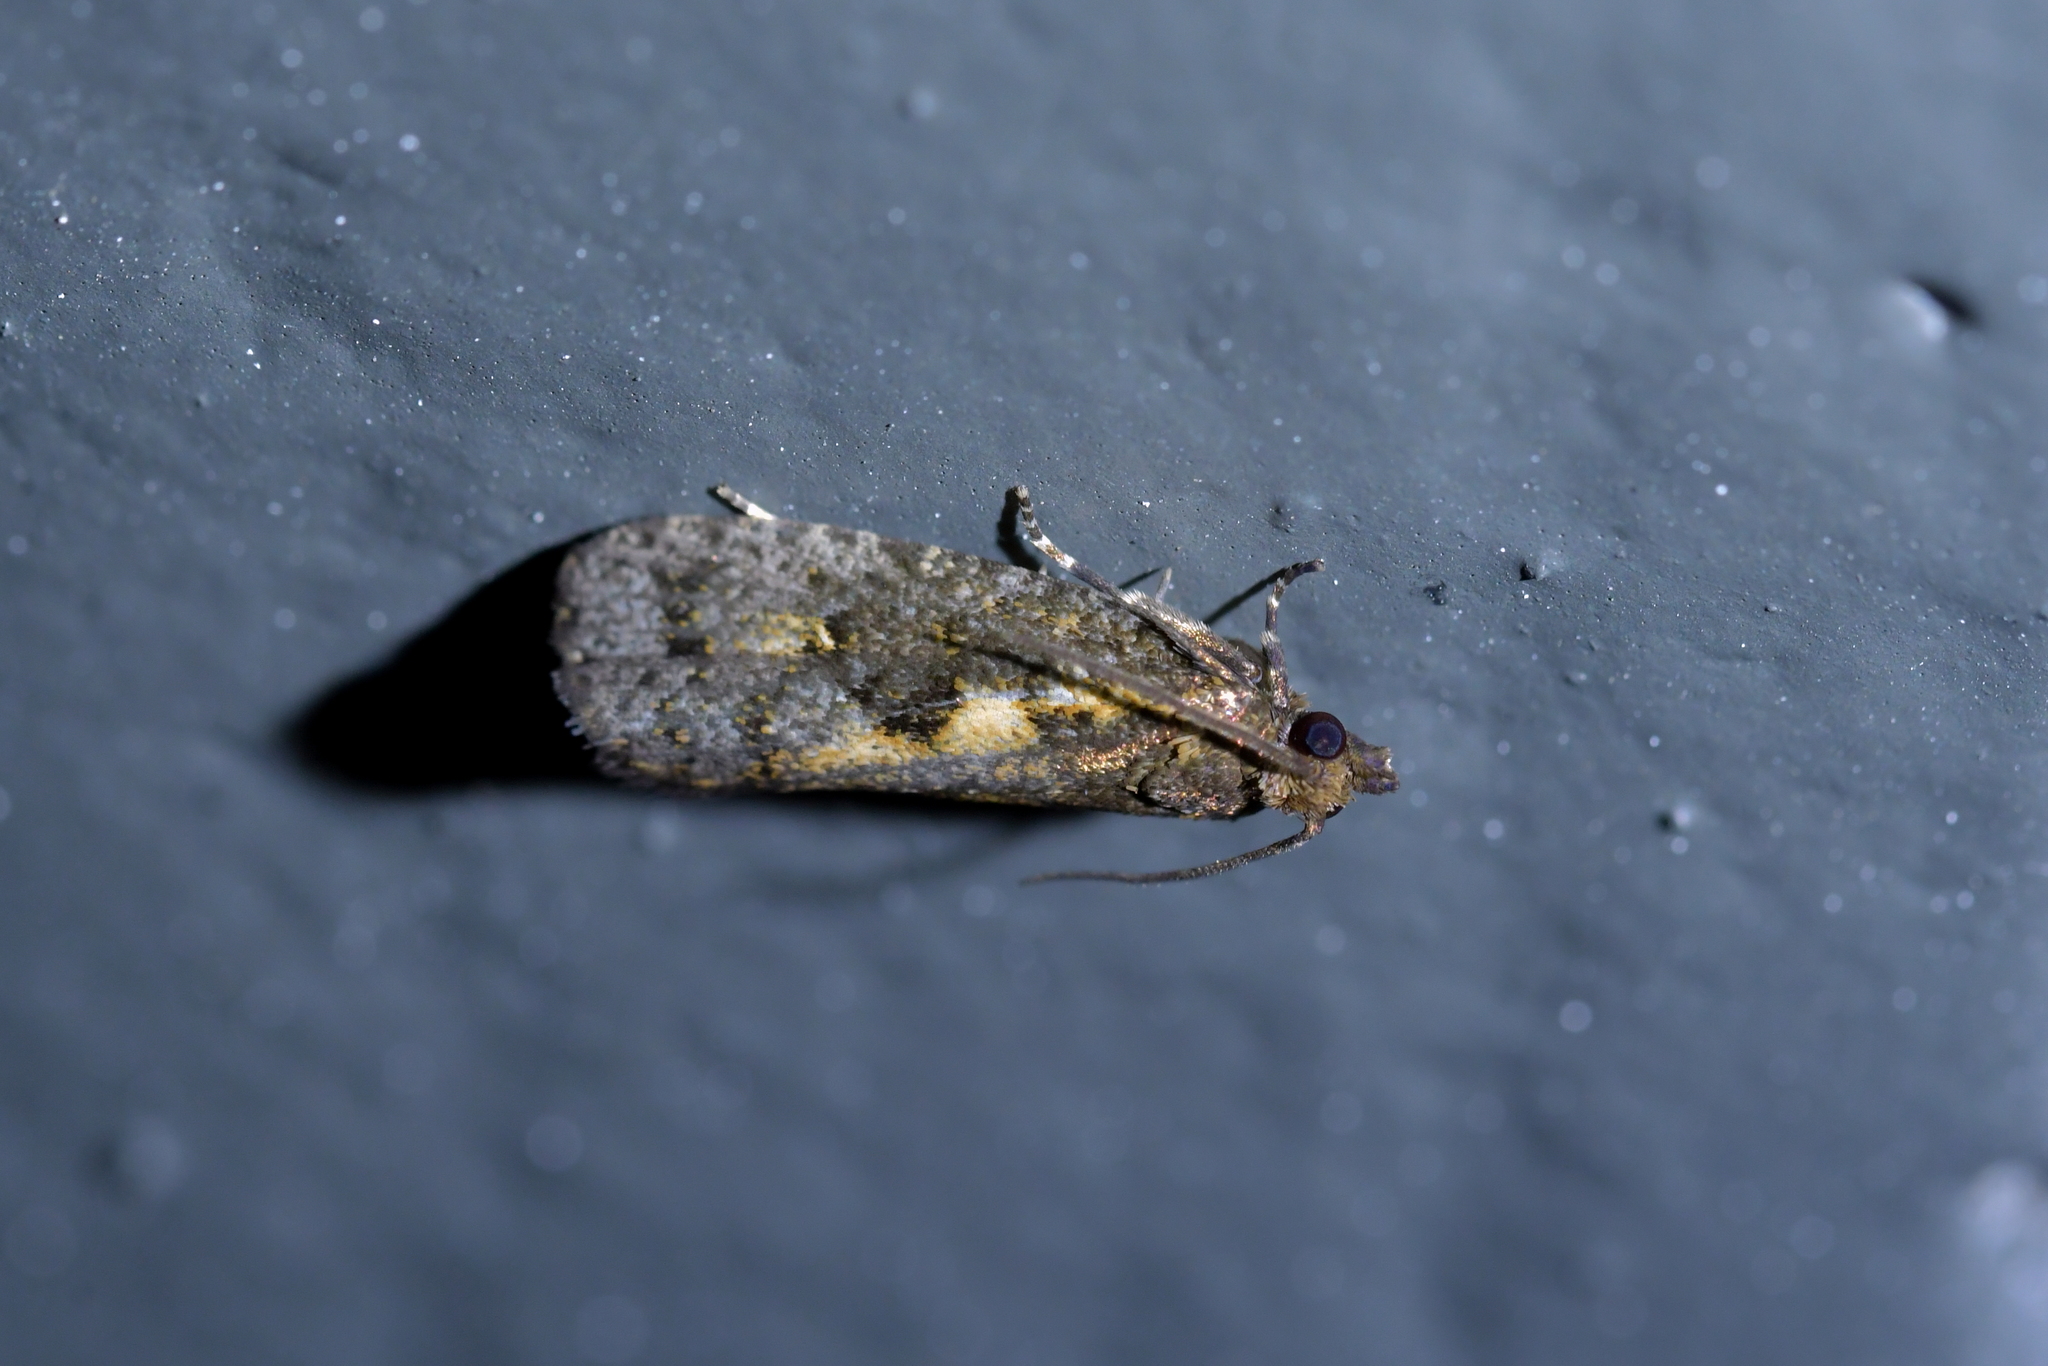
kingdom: Animalia
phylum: Arthropoda
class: Insecta
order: Lepidoptera
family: Tortricidae
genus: Cryptaspasma
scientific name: Cryptaspasma querula
